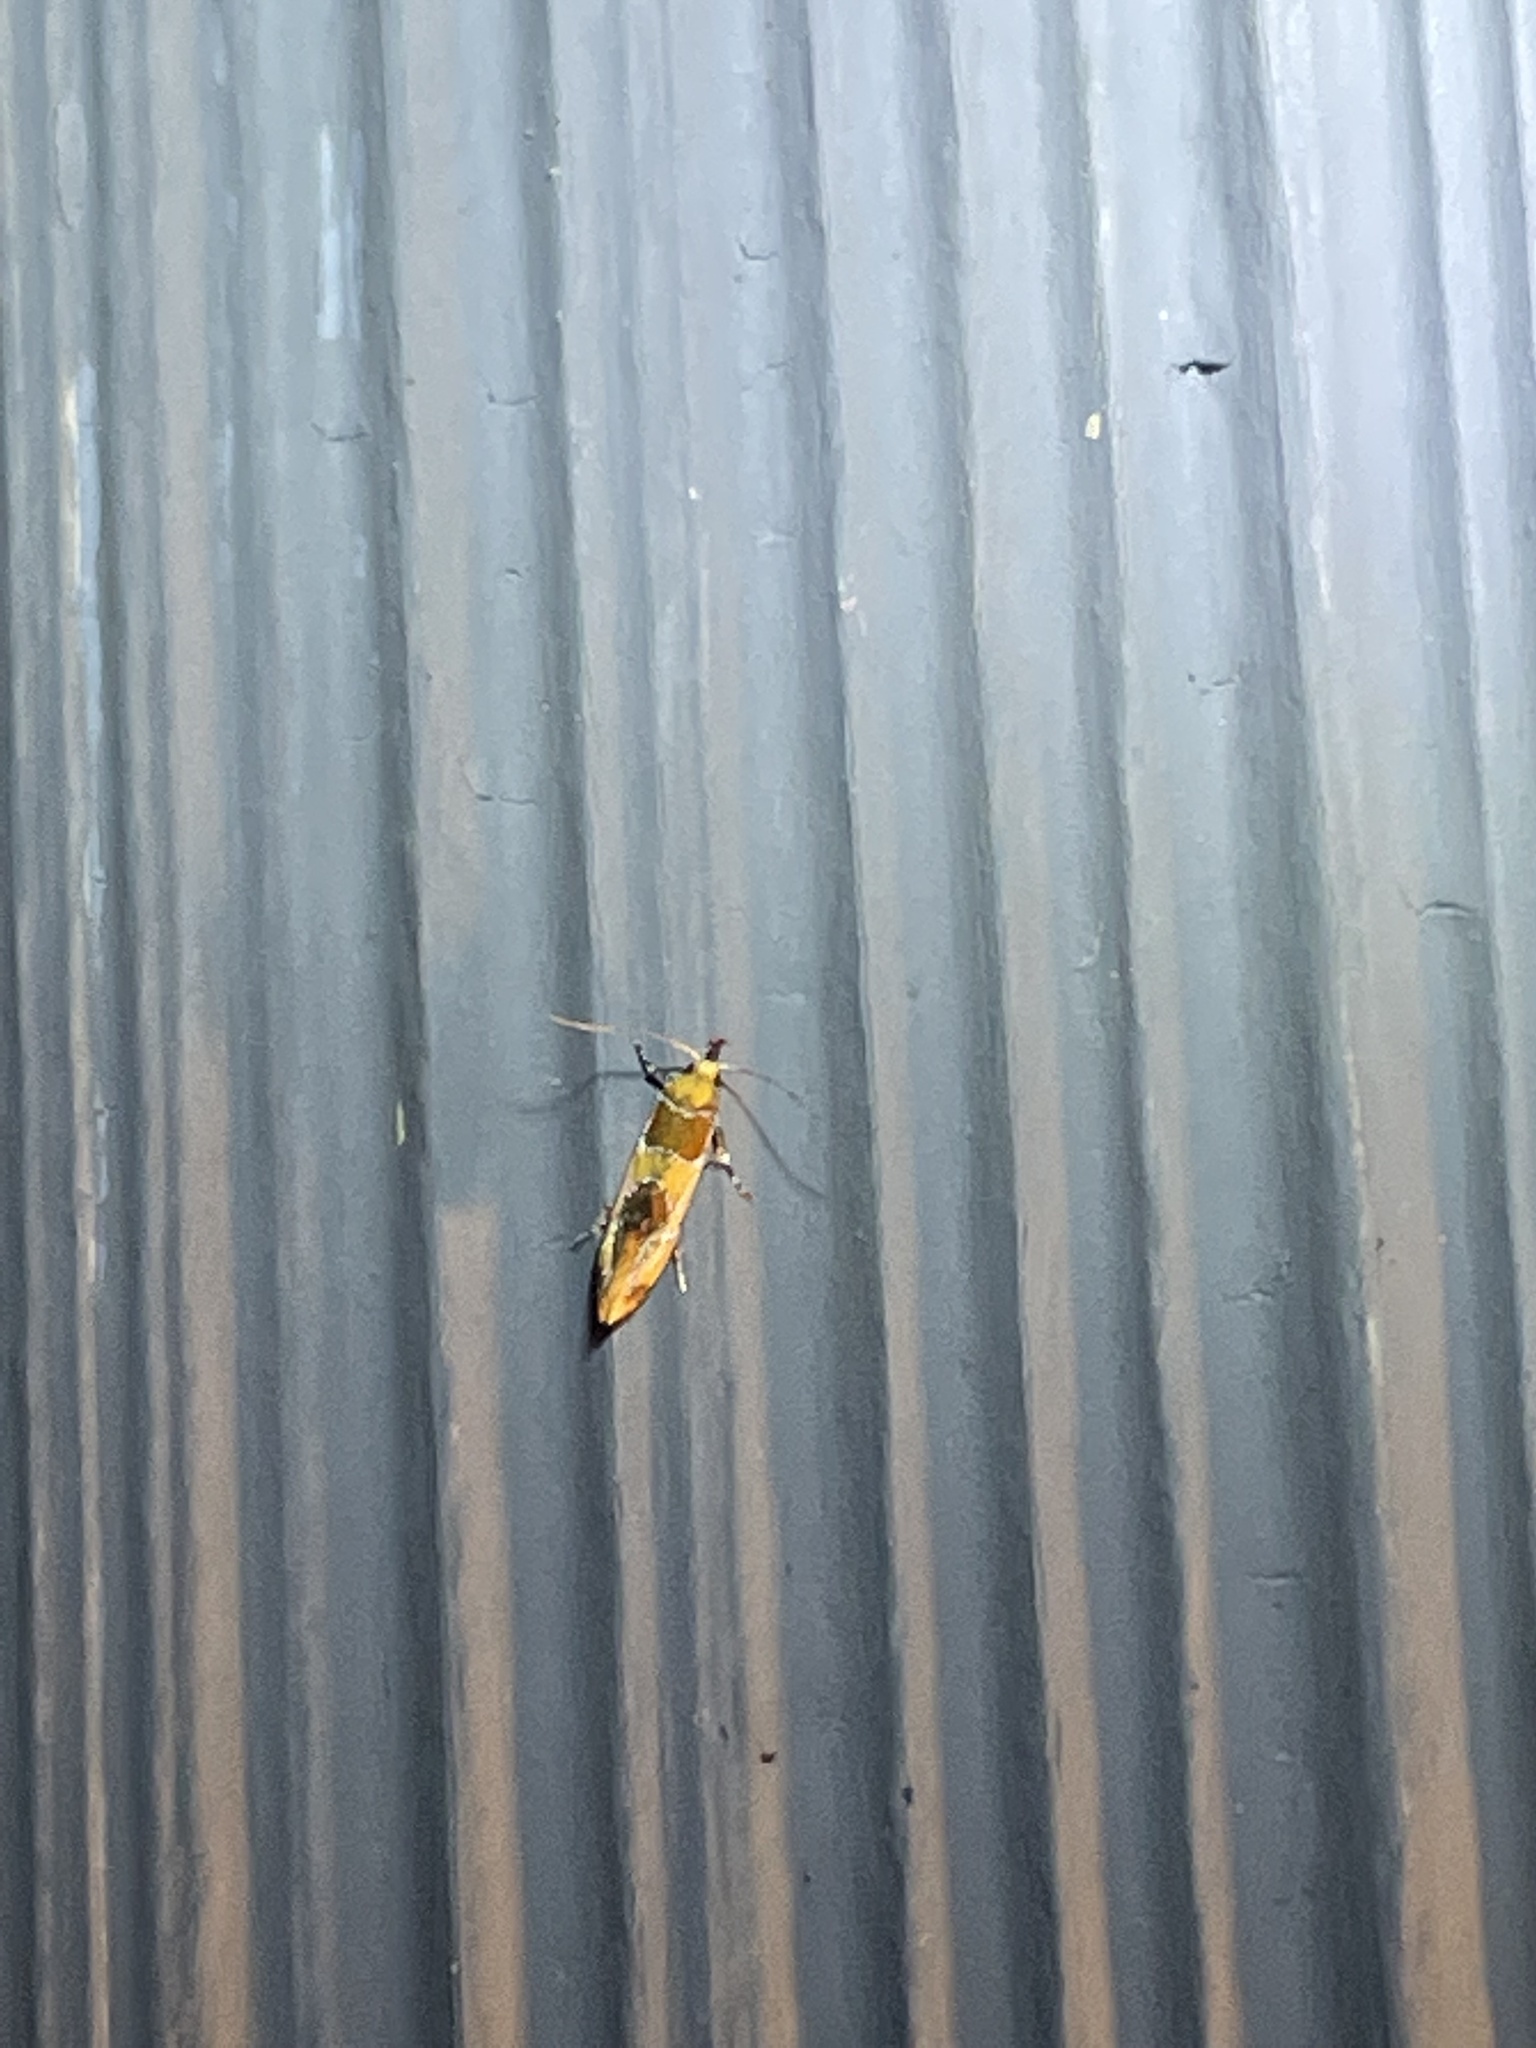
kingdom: Animalia
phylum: Arthropoda
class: Insecta
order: Lepidoptera
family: Oecophoridae
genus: Callima
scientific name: Callima argenticinctella
